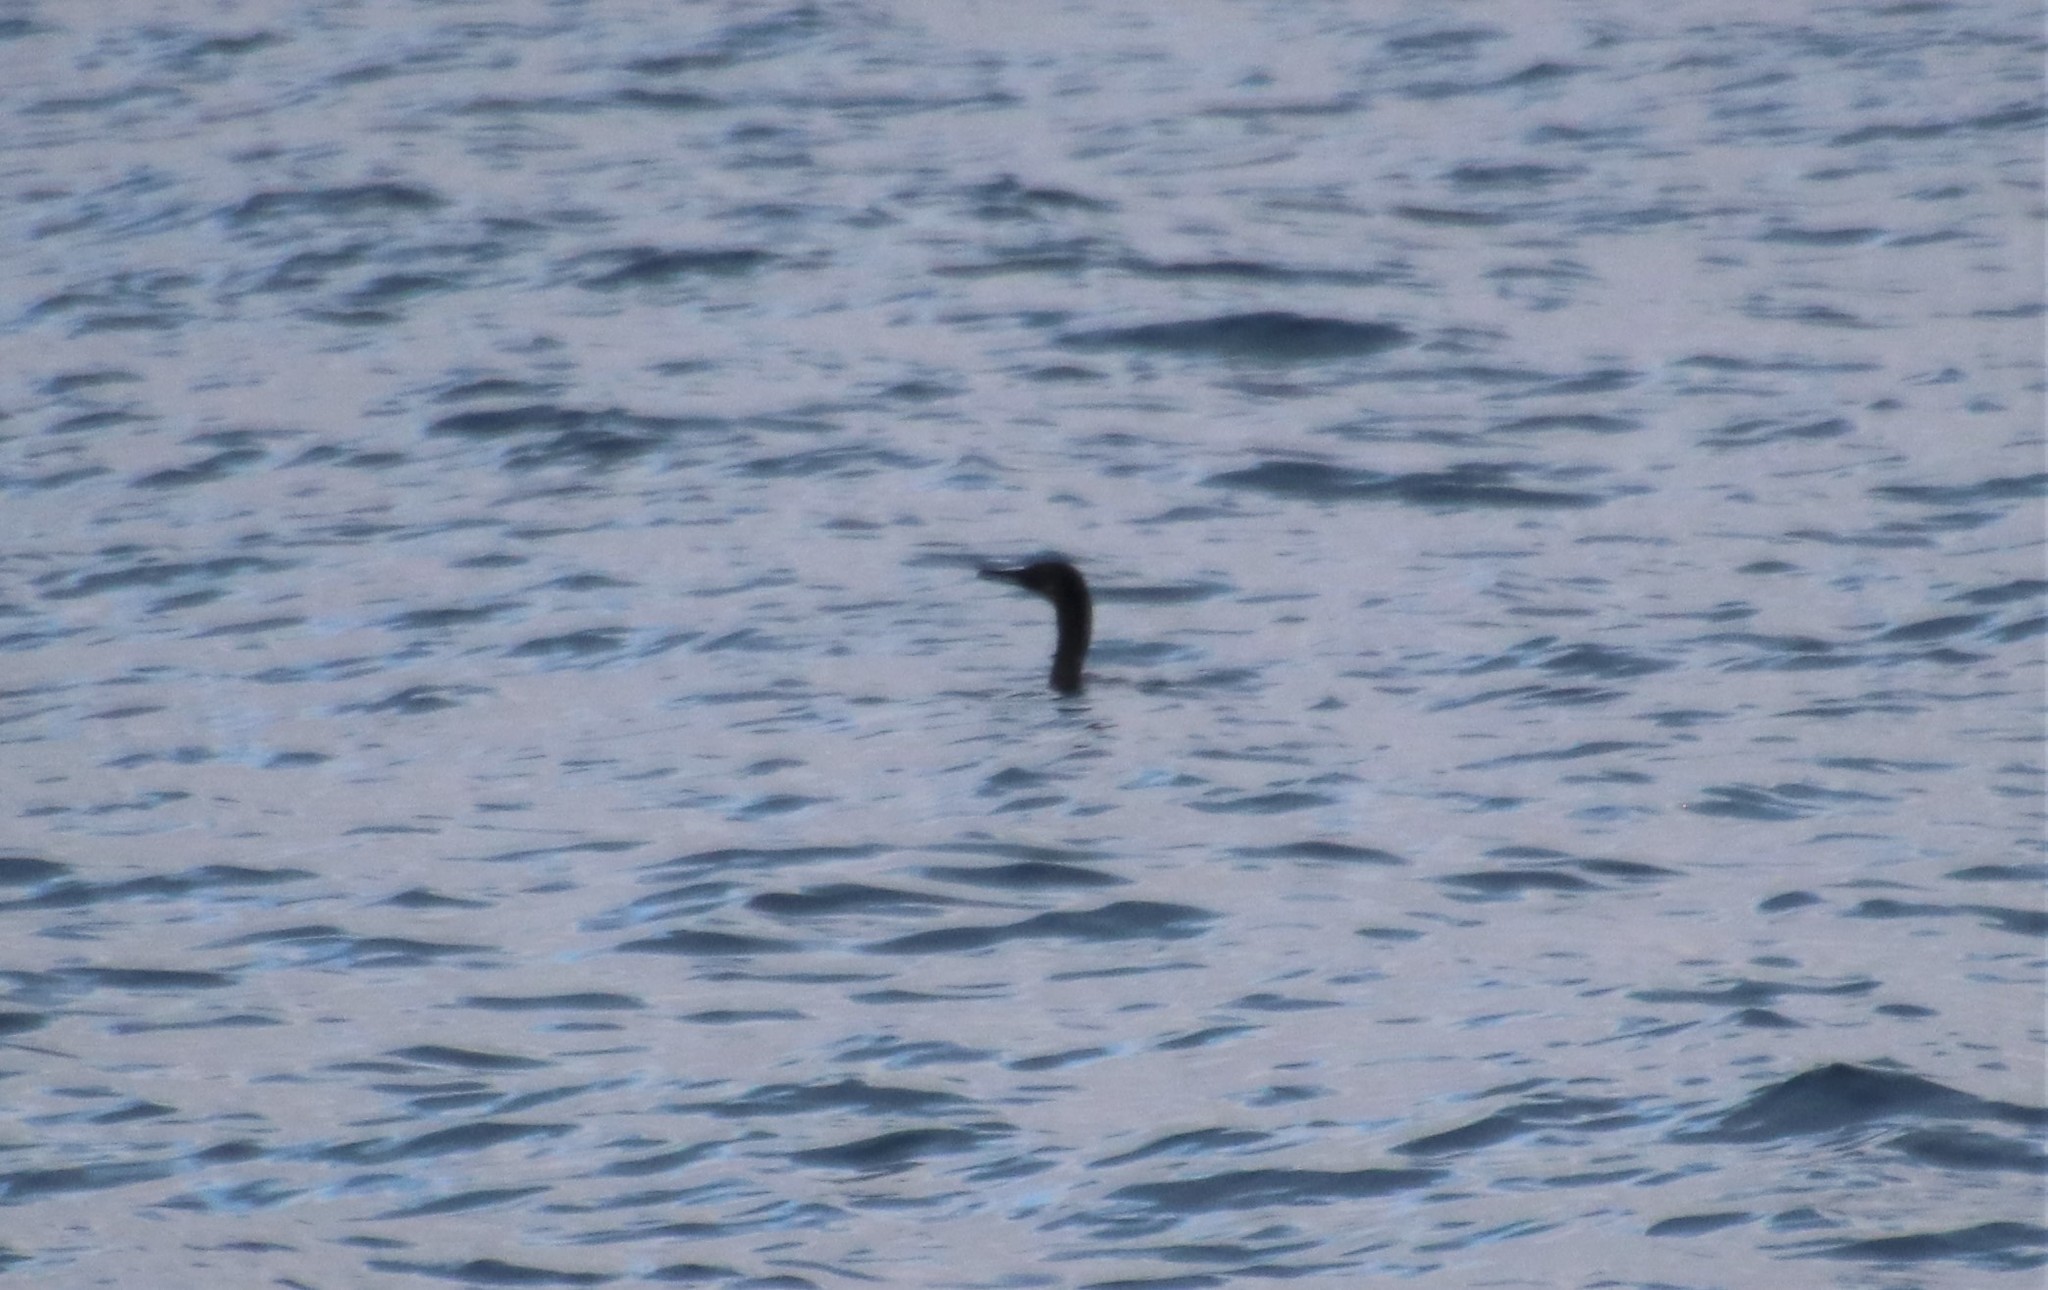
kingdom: Animalia
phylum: Chordata
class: Aves
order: Suliformes
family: Phalacrocoracidae
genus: Urile
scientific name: Urile penicillatus
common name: Brandt's cormorant
